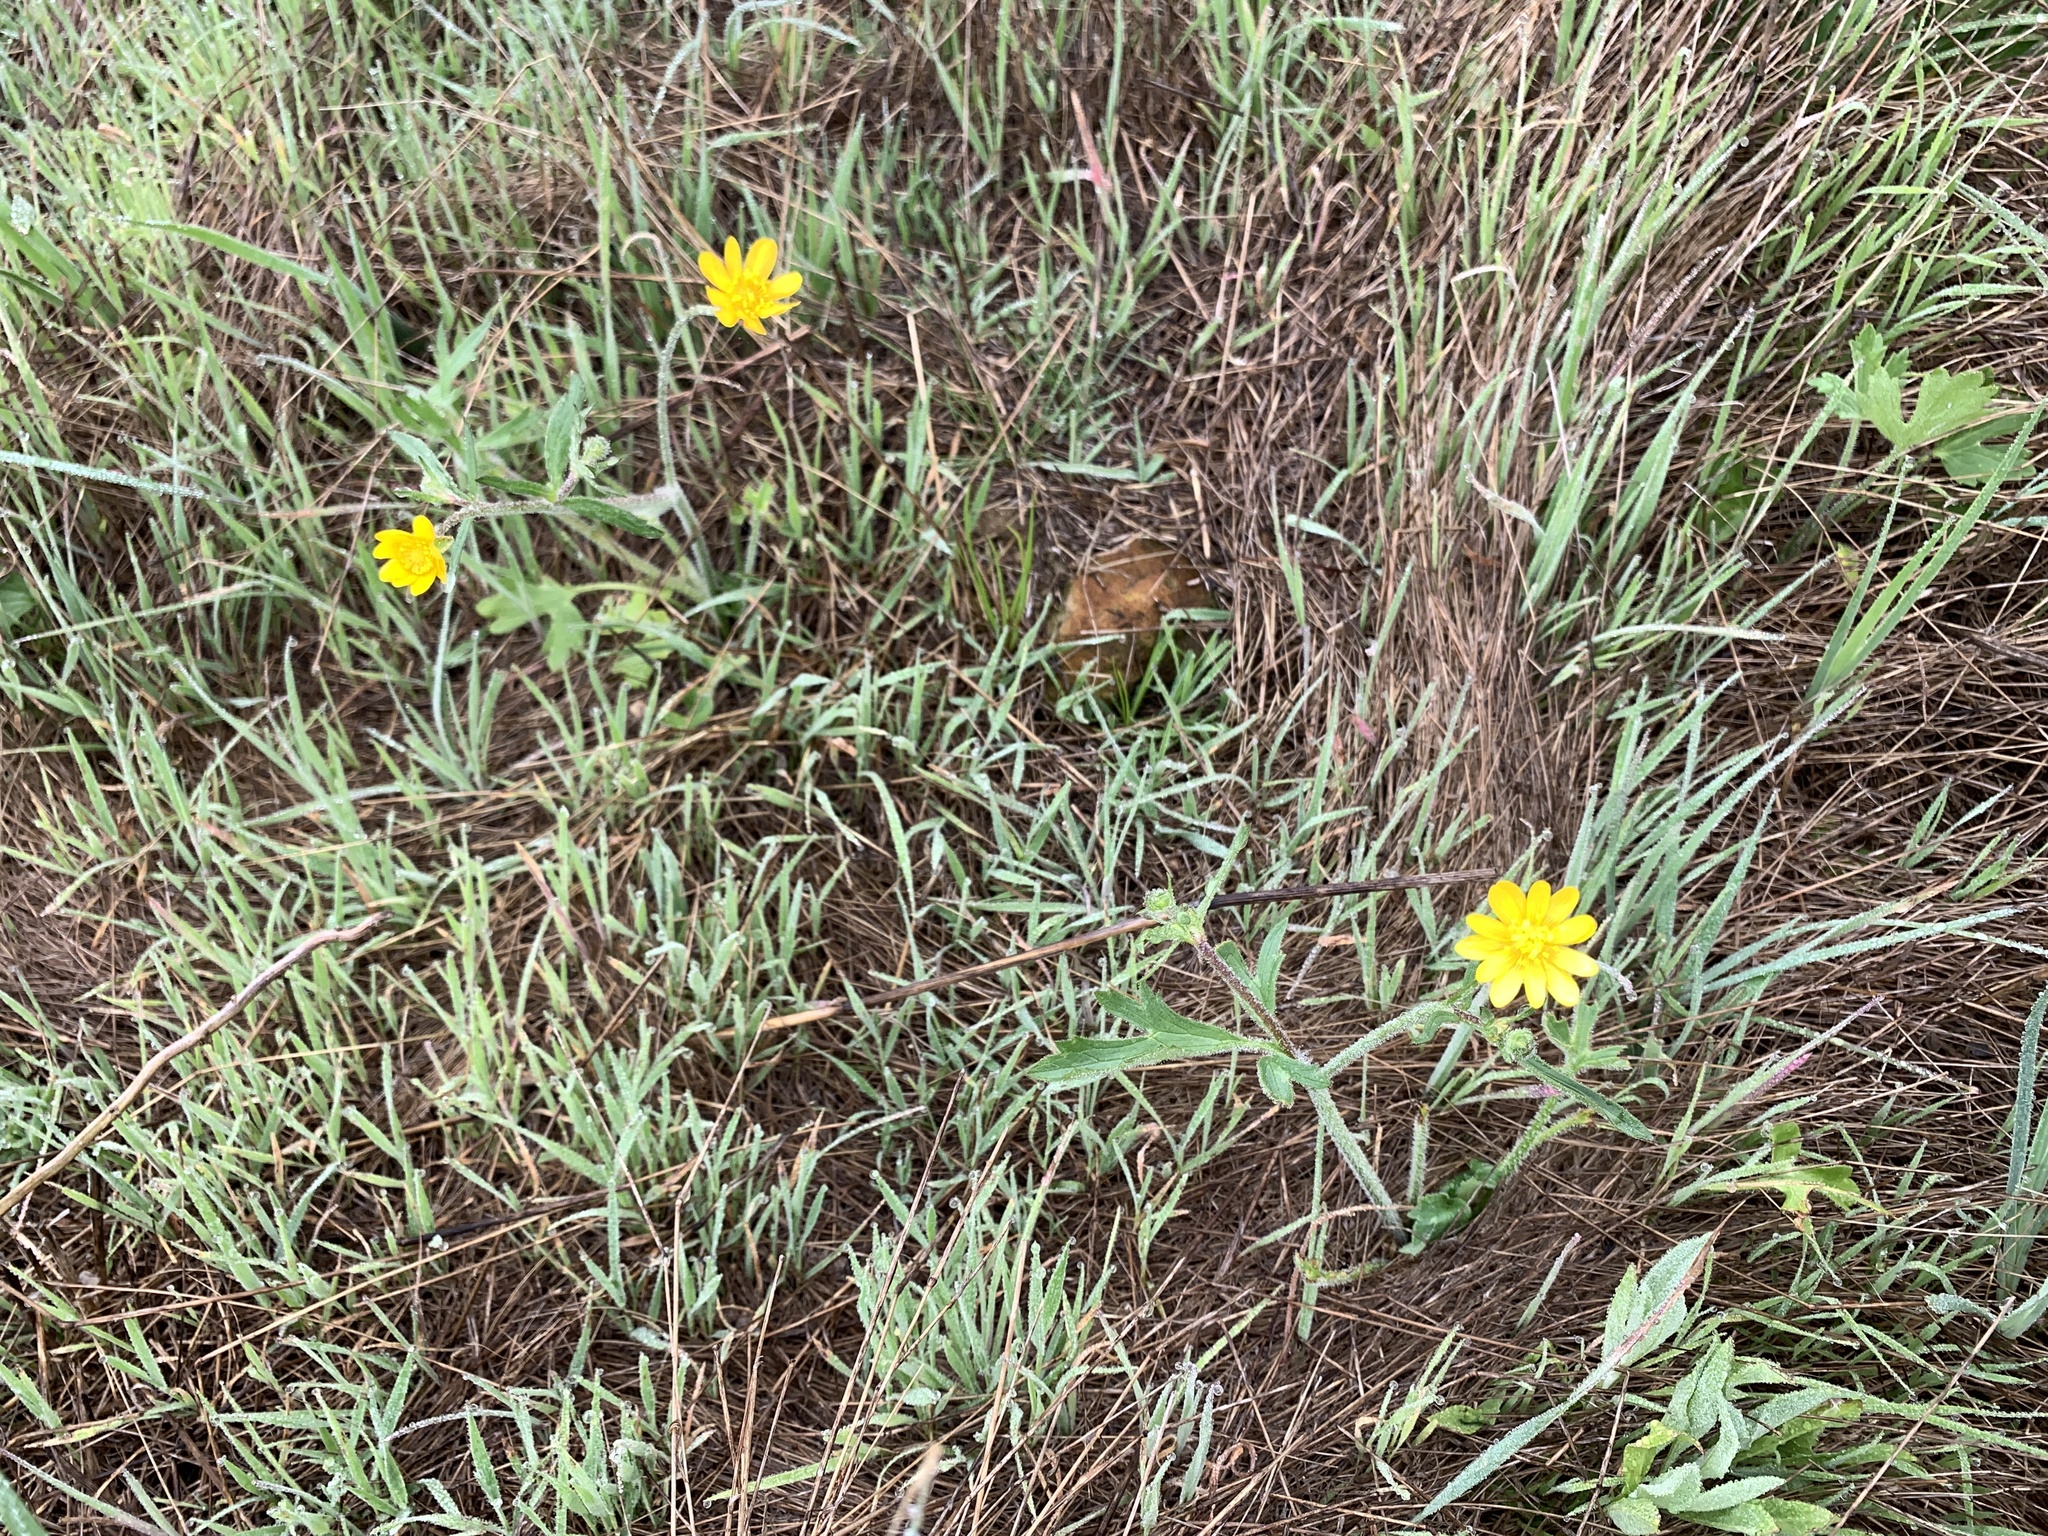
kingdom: Plantae
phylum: Tracheophyta
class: Magnoliopsida
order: Ranunculales
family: Ranunculaceae
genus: Ranunculus
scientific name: Ranunculus californicus
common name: California buttercup
